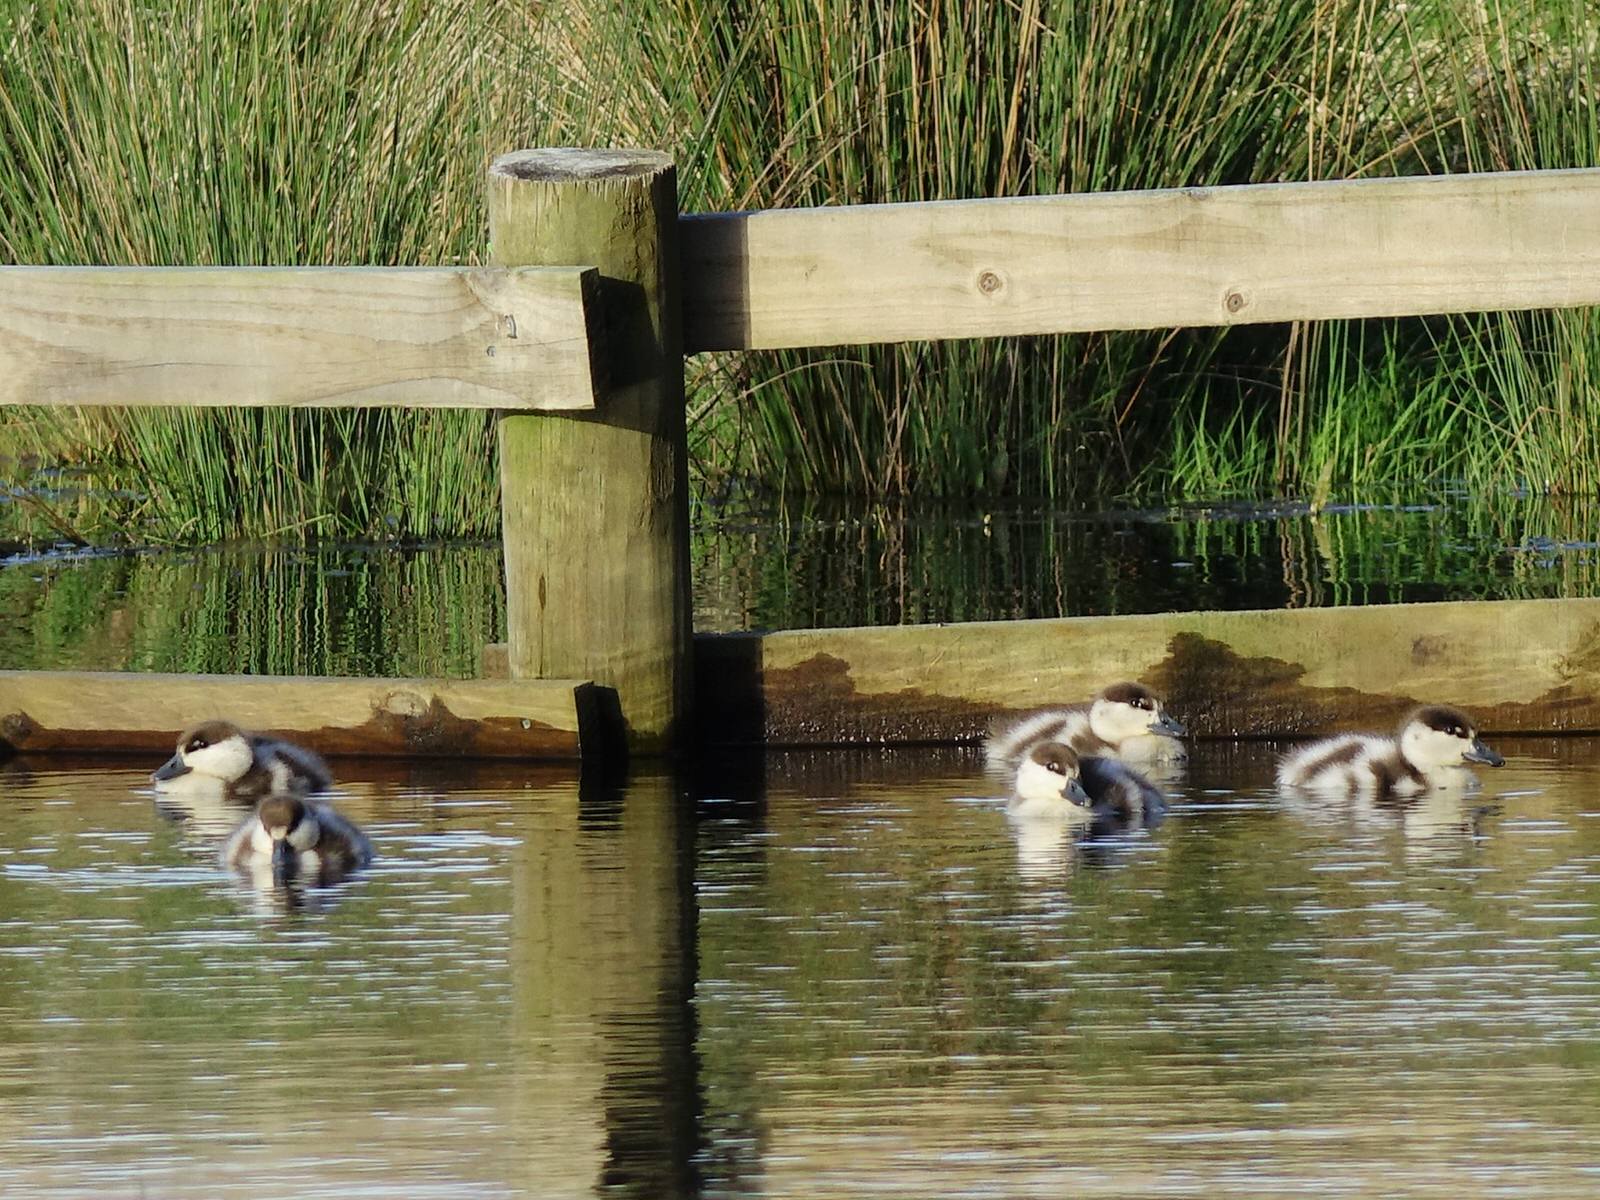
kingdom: Animalia
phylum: Chordata
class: Aves
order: Anseriformes
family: Anatidae
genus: Tadorna
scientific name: Tadorna variegata
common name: Paradise shelduck
